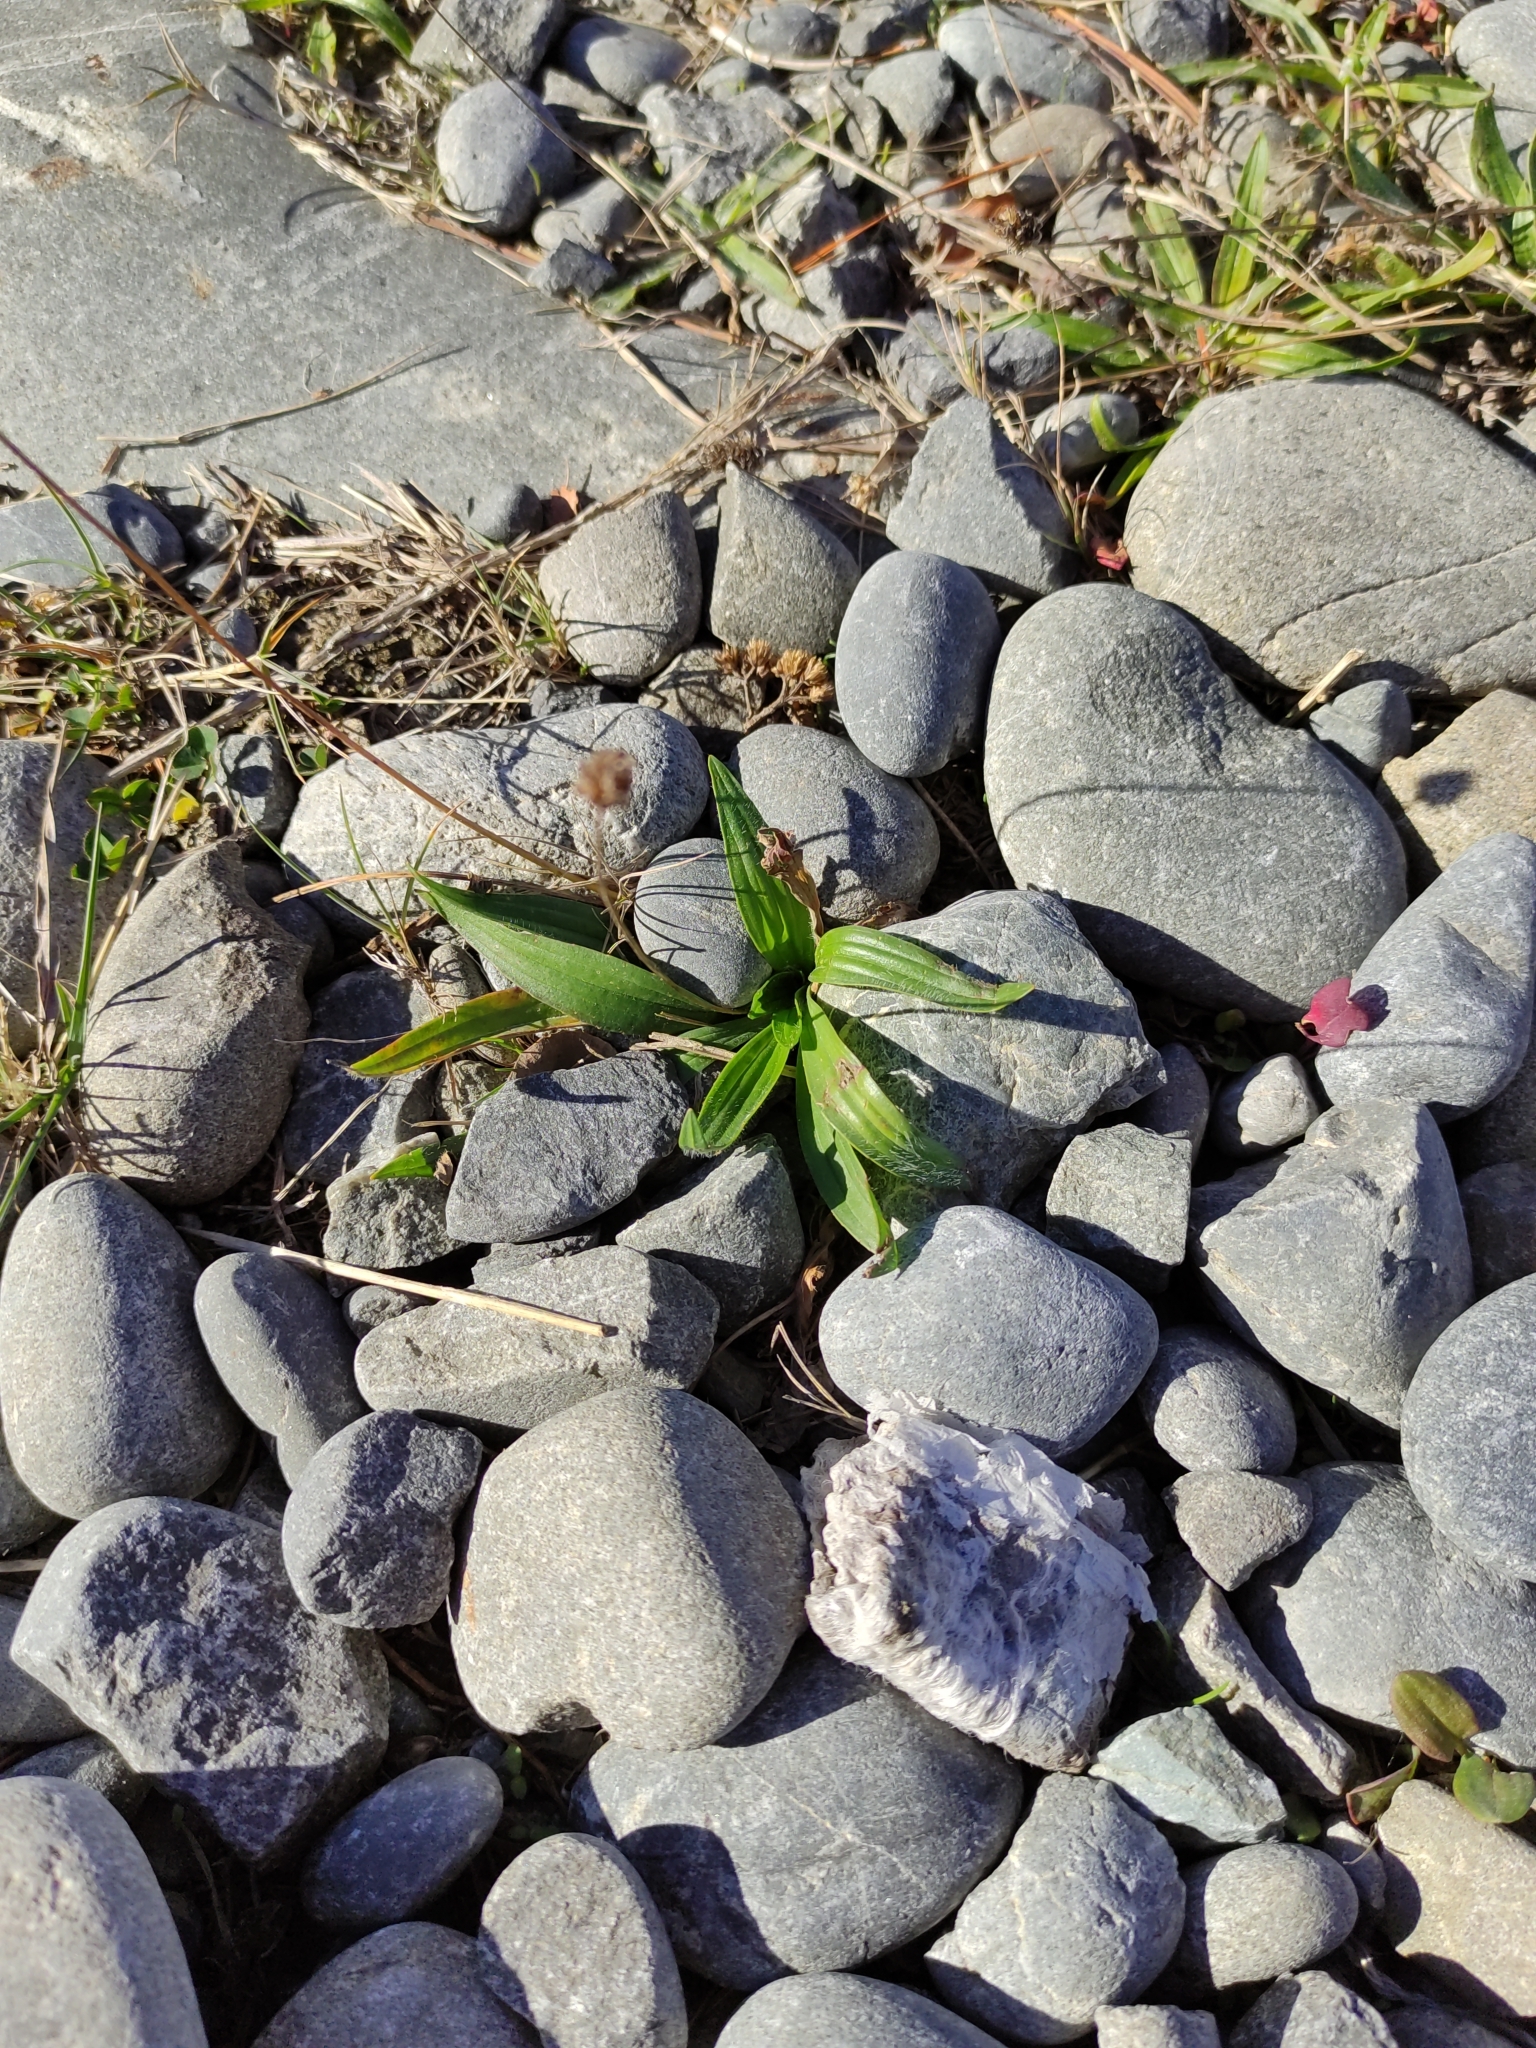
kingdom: Plantae
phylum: Tracheophyta
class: Magnoliopsida
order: Lamiales
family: Plantaginaceae
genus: Plantago
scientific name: Plantago lanceolata
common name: Ribwort plantain
